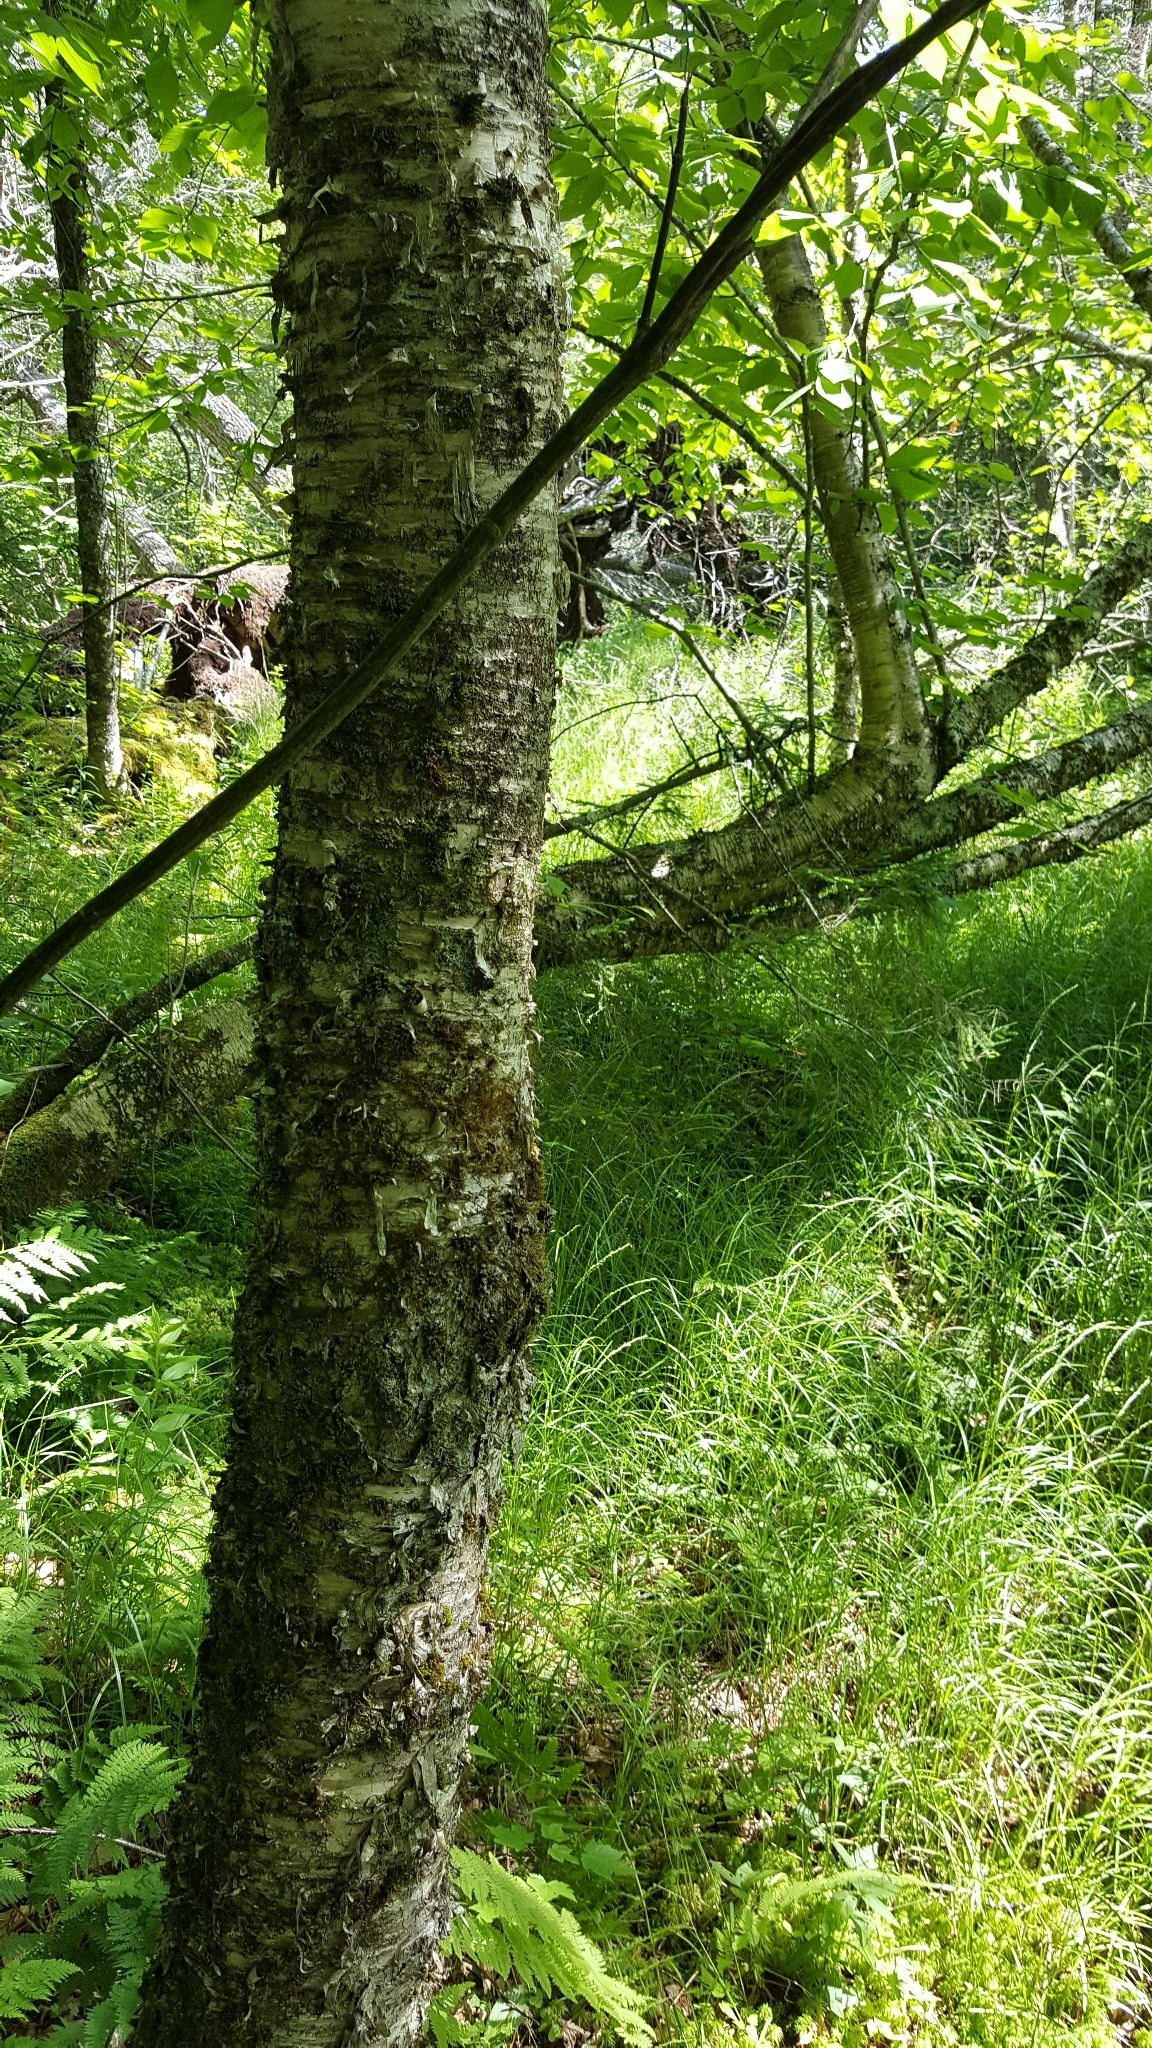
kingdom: Plantae
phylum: Tracheophyta
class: Magnoliopsida
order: Fagales
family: Betulaceae
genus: Betula
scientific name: Betula alleghaniensis
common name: Yellow birch
